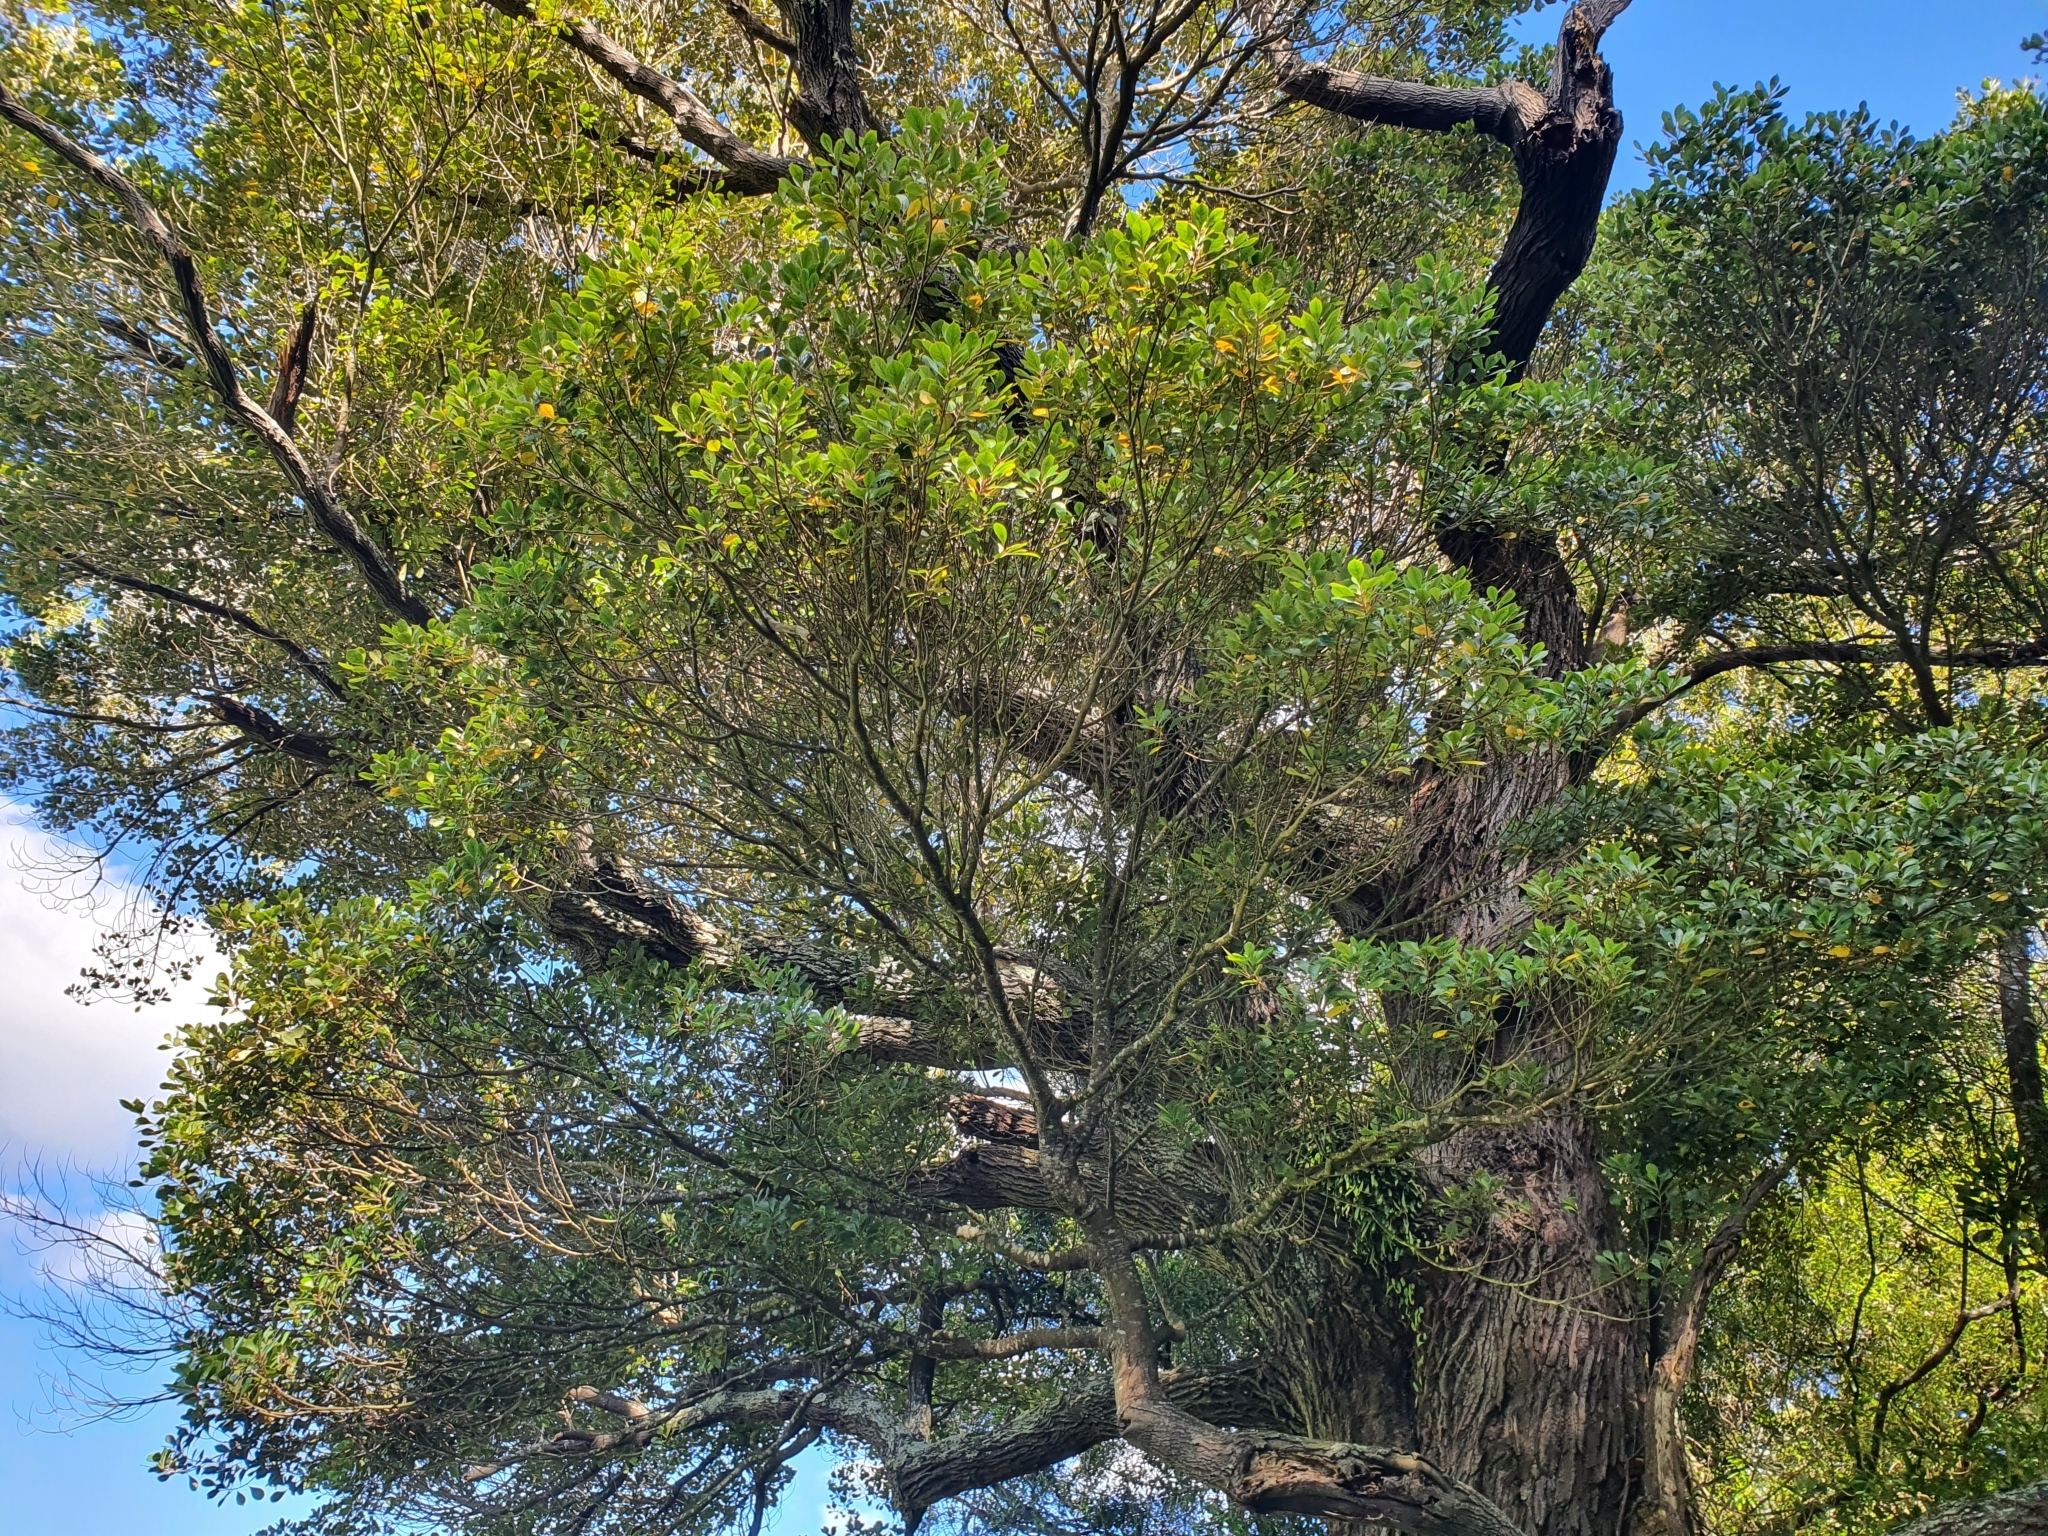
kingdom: Plantae
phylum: Tracheophyta
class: Magnoliopsida
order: Oxalidales
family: Elaeocarpaceae
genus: Elaeocarpus
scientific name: Elaeocarpus dentatus
